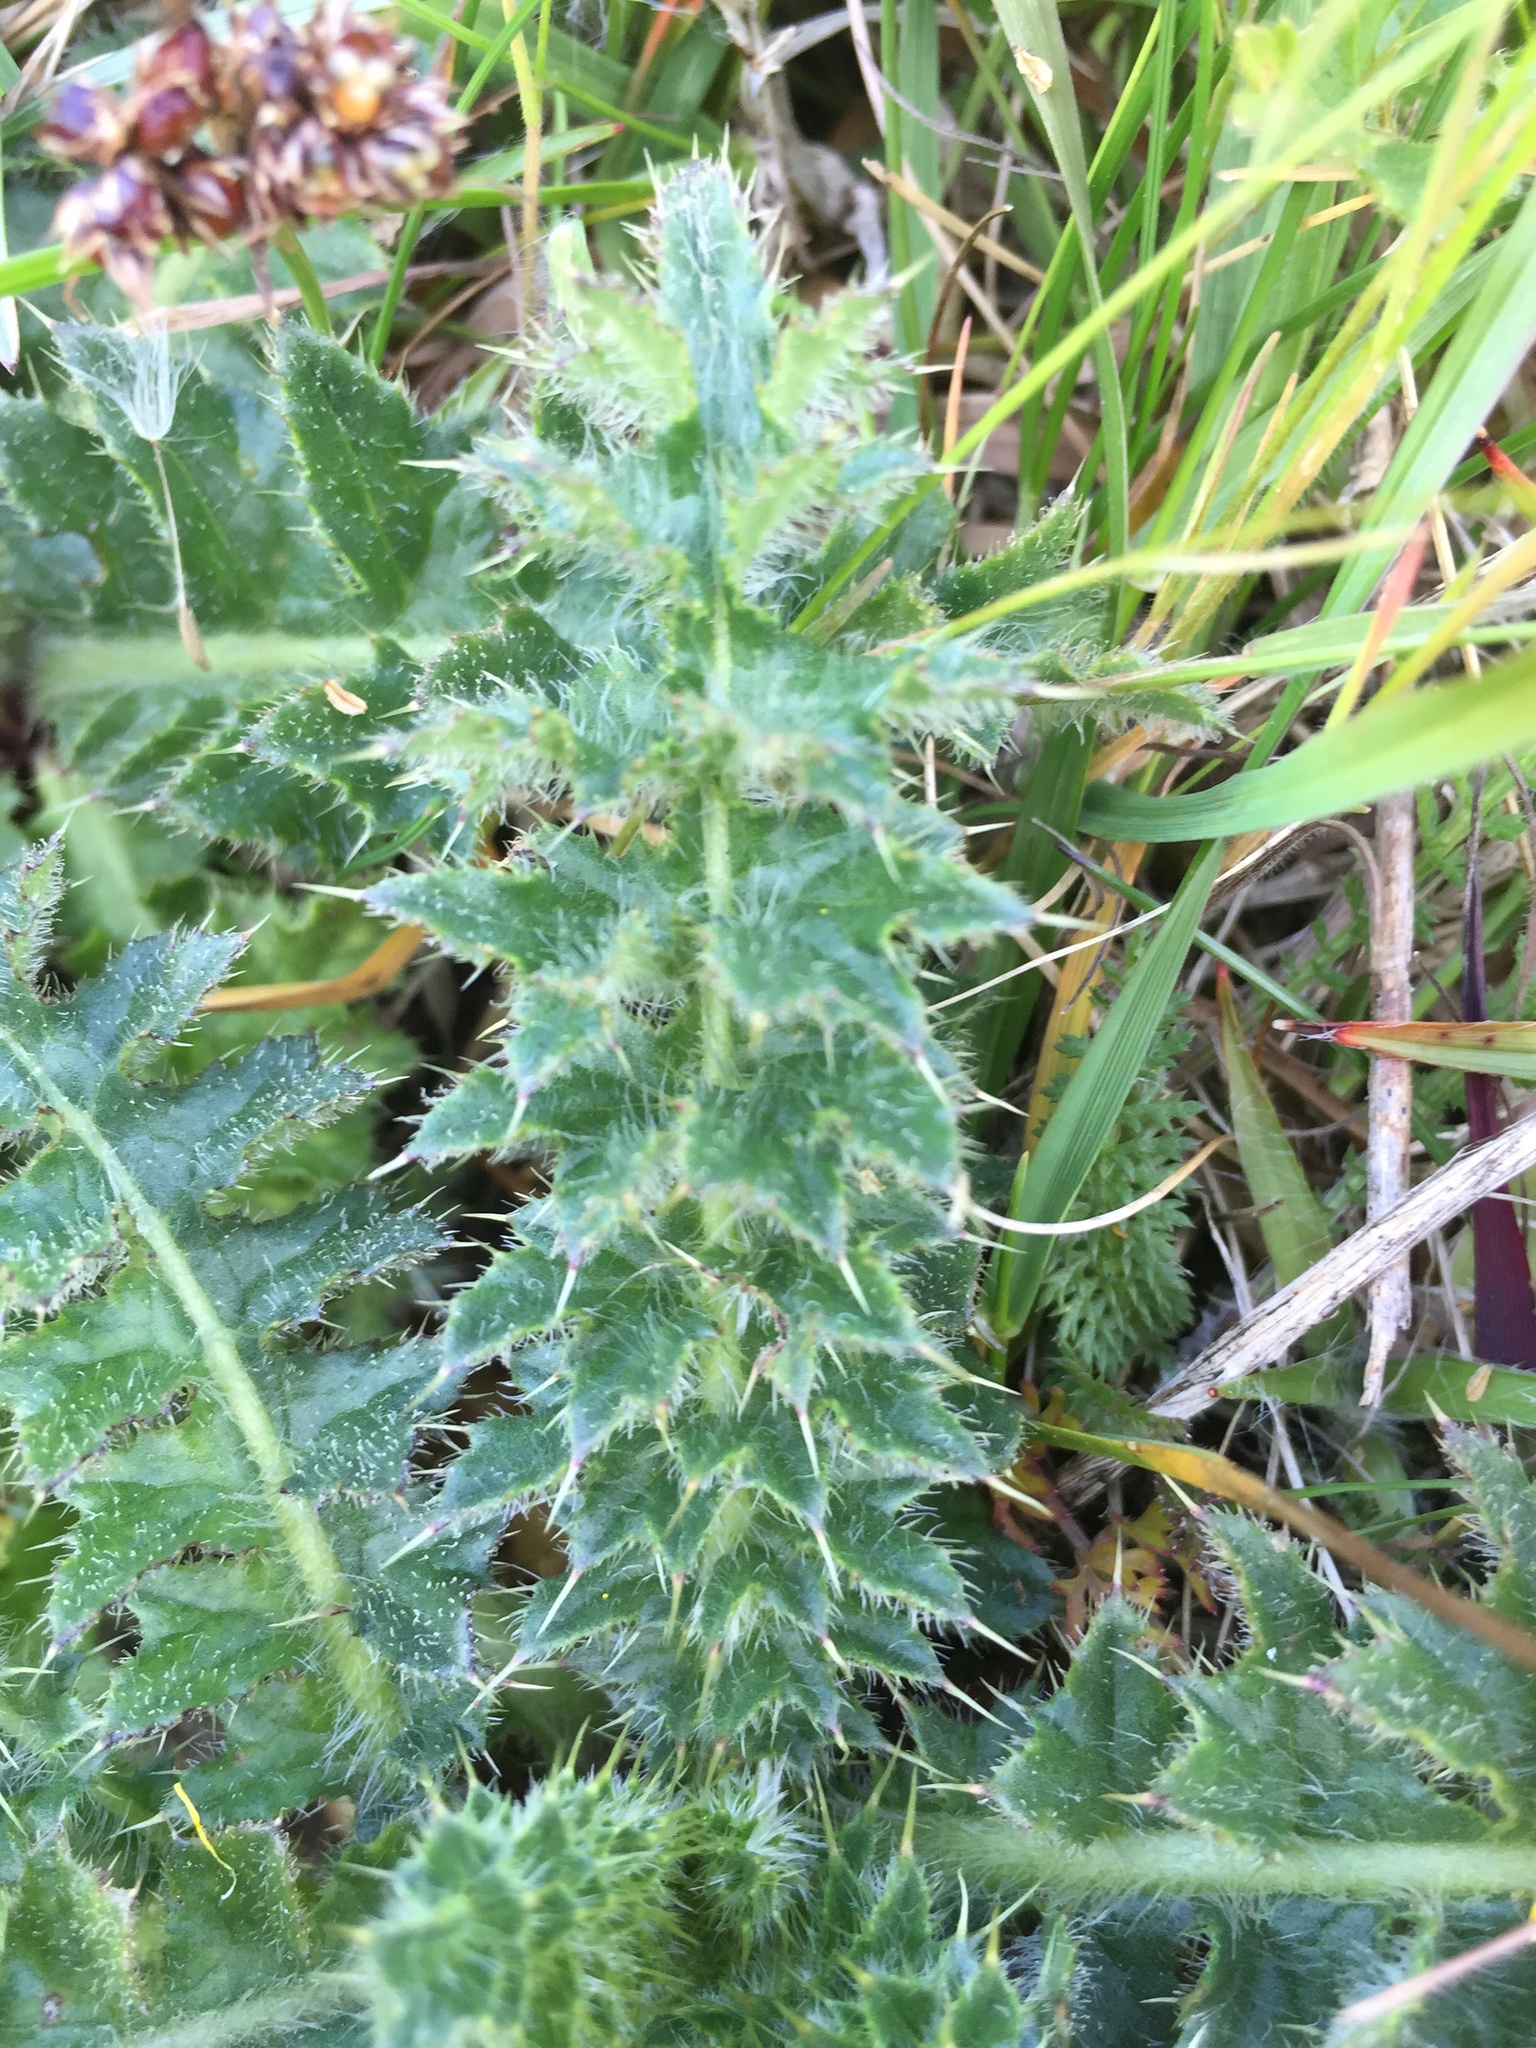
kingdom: Plantae
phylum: Tracheophyta
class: Magnoliopsida
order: Asterales
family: Asteraceae
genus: Cirsium
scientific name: Cirsium acaulon
